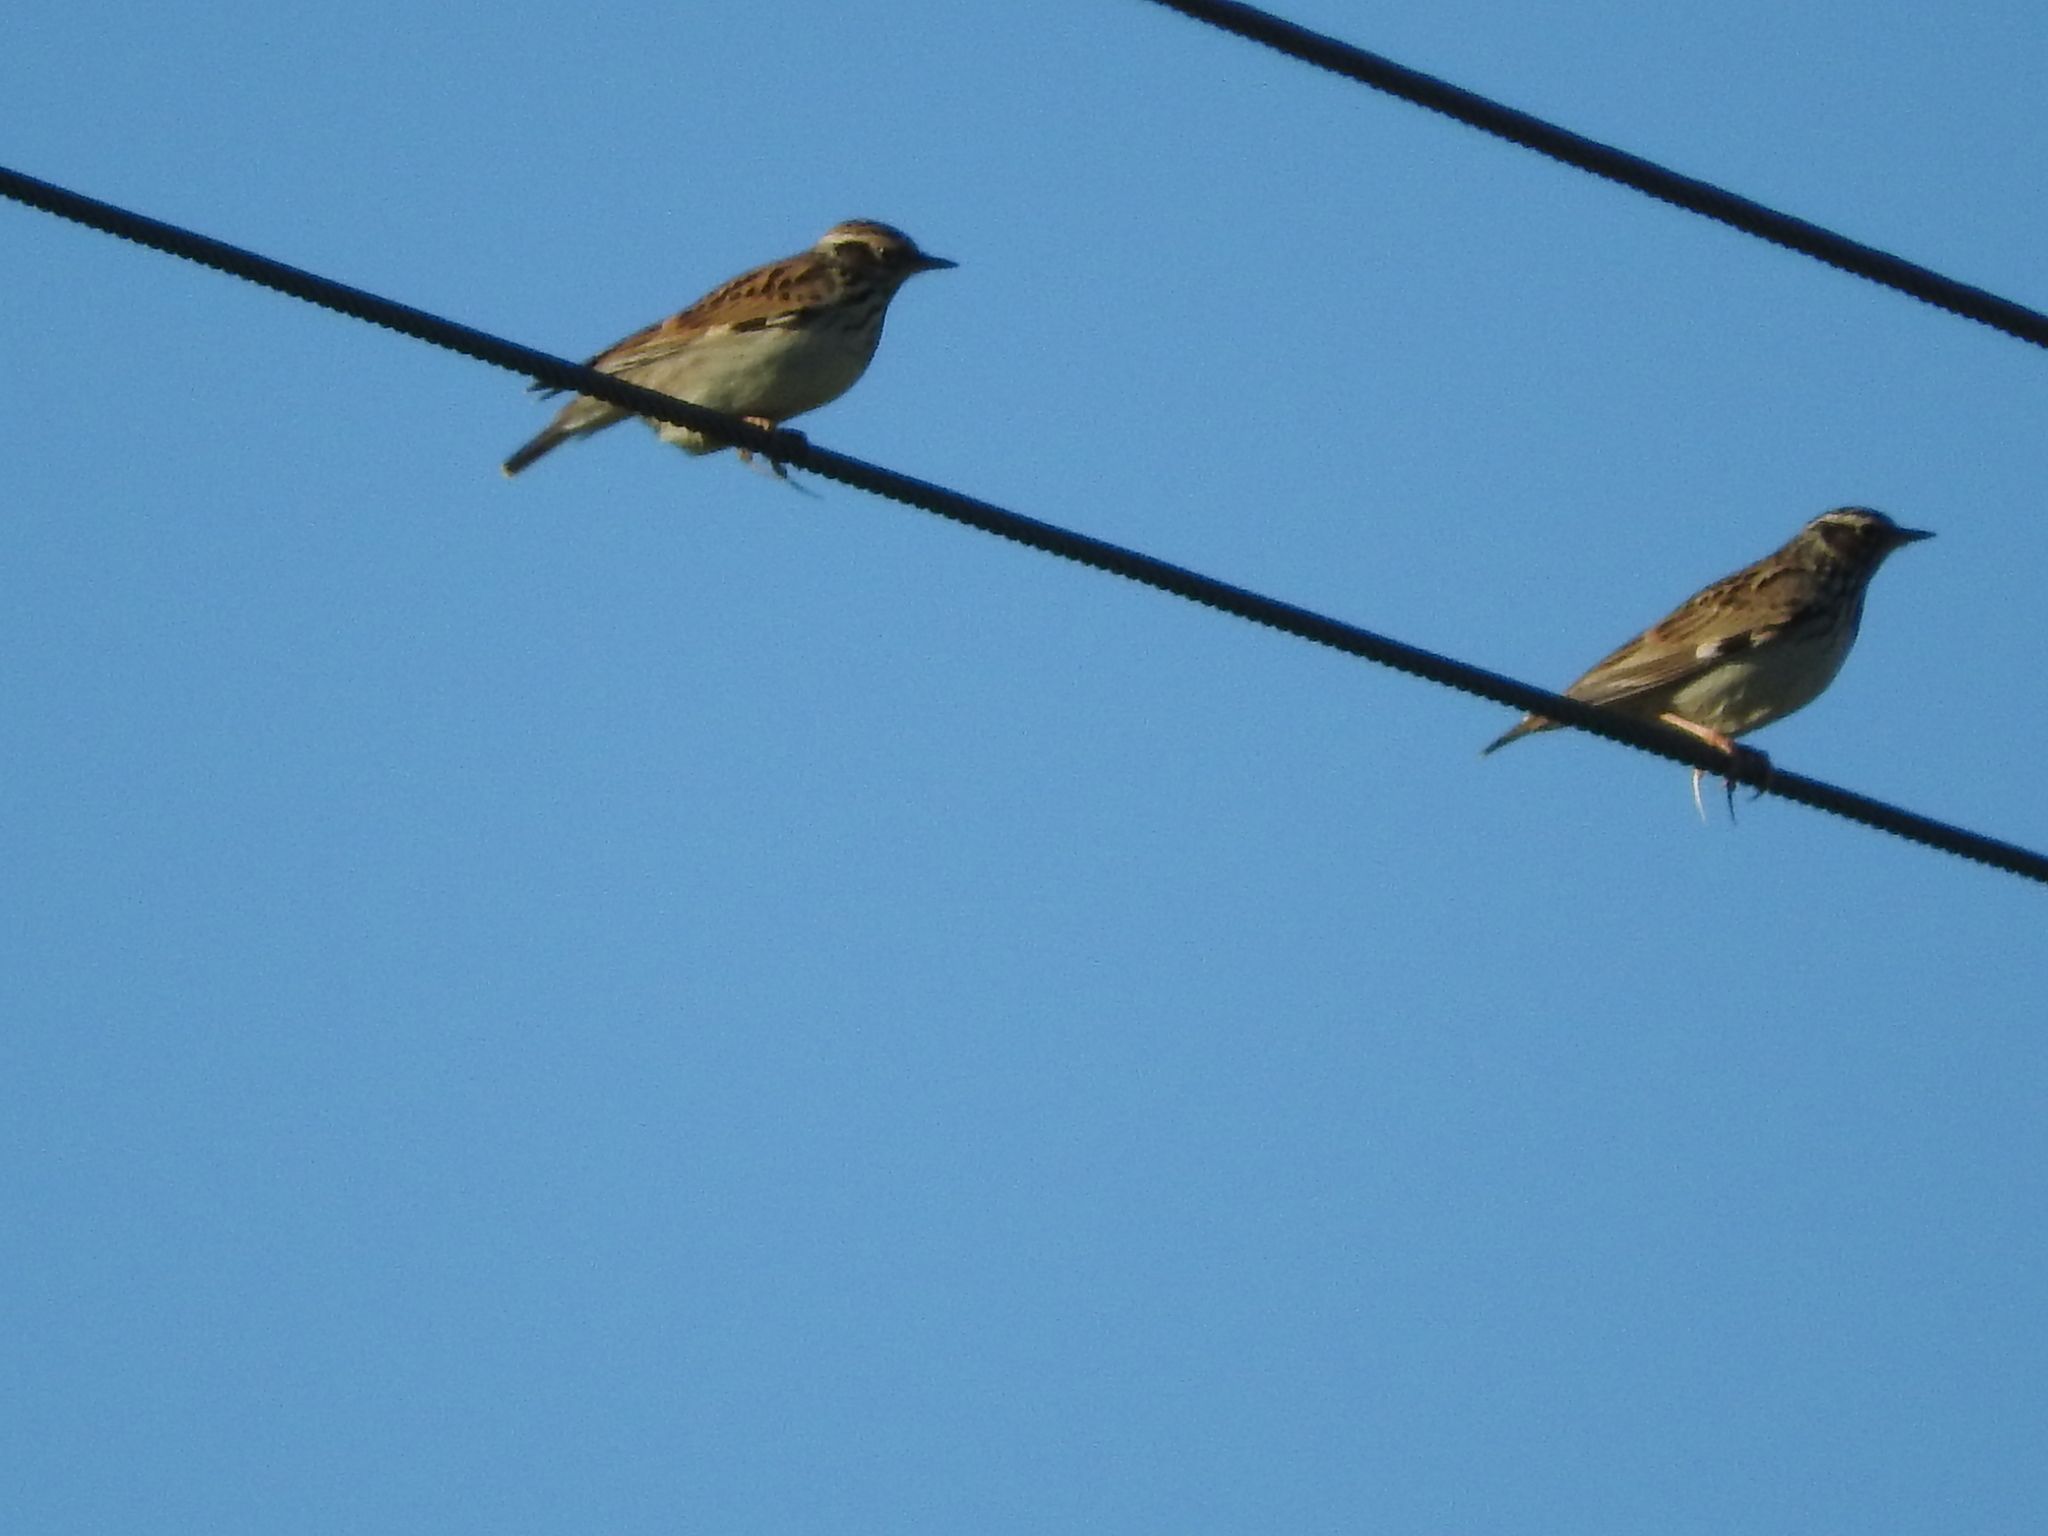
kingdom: Animalia
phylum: Chordata
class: Aves
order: Passeriformes
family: Alaudidae
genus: Lullula
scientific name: Lullula arborea
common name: Woodlark
